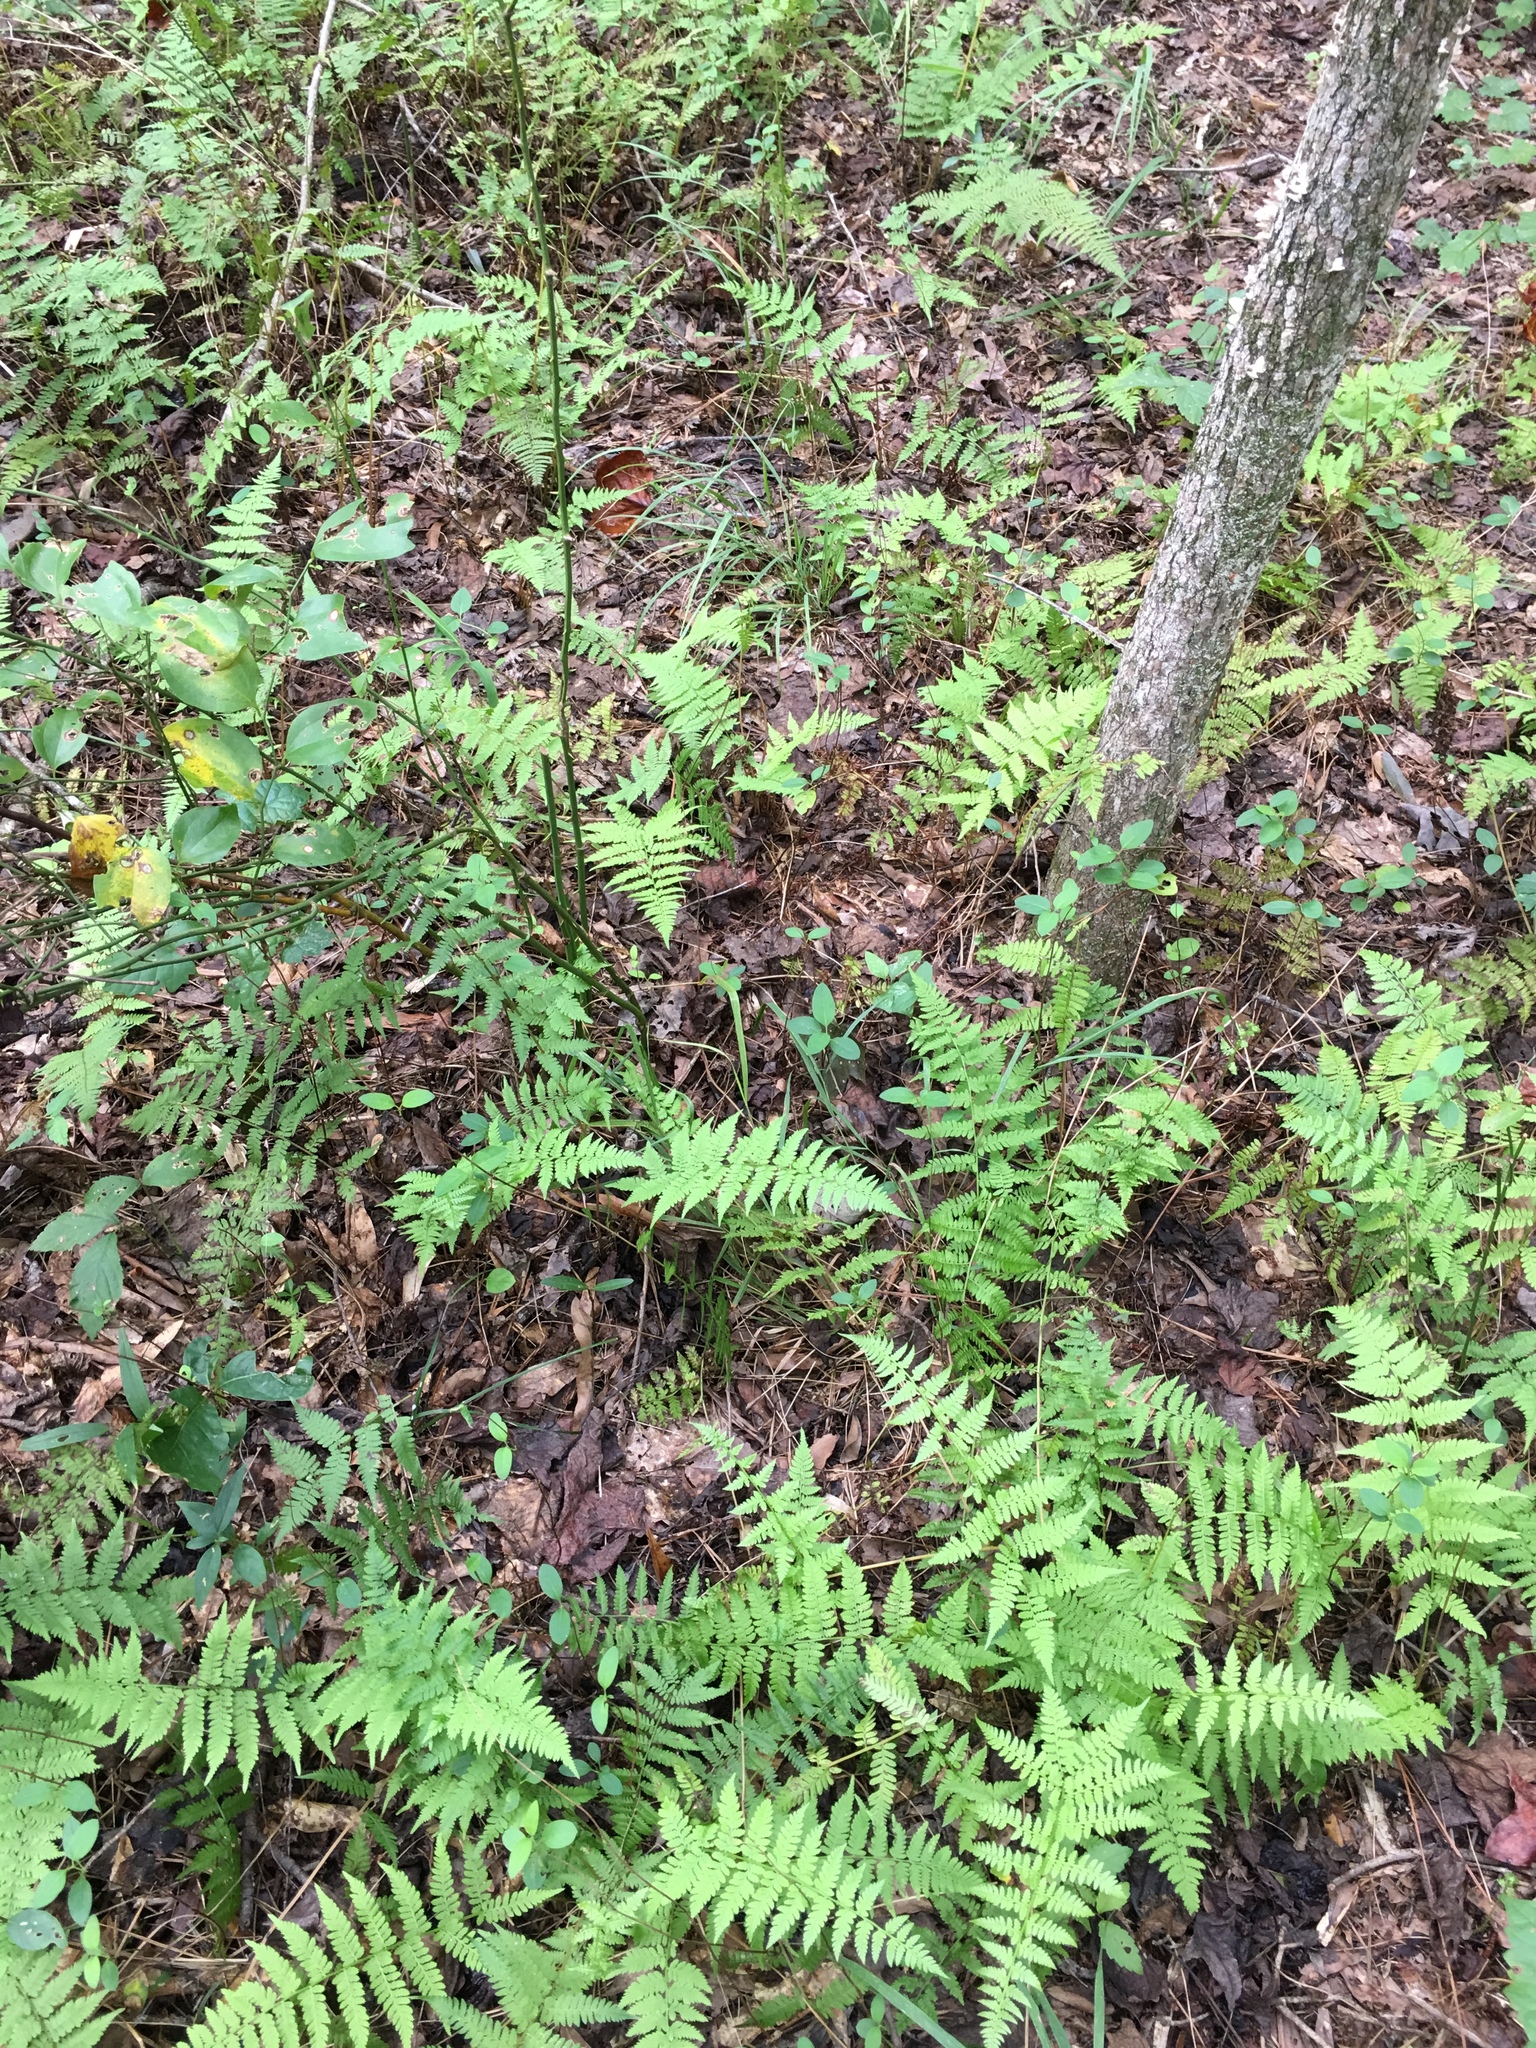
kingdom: Plantae
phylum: Tracheophyta
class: Polypodiopsida
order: Polypodiales
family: Athyriaceae
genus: Athyrium
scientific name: Athyrium asplenioides
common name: Southern lady fern
